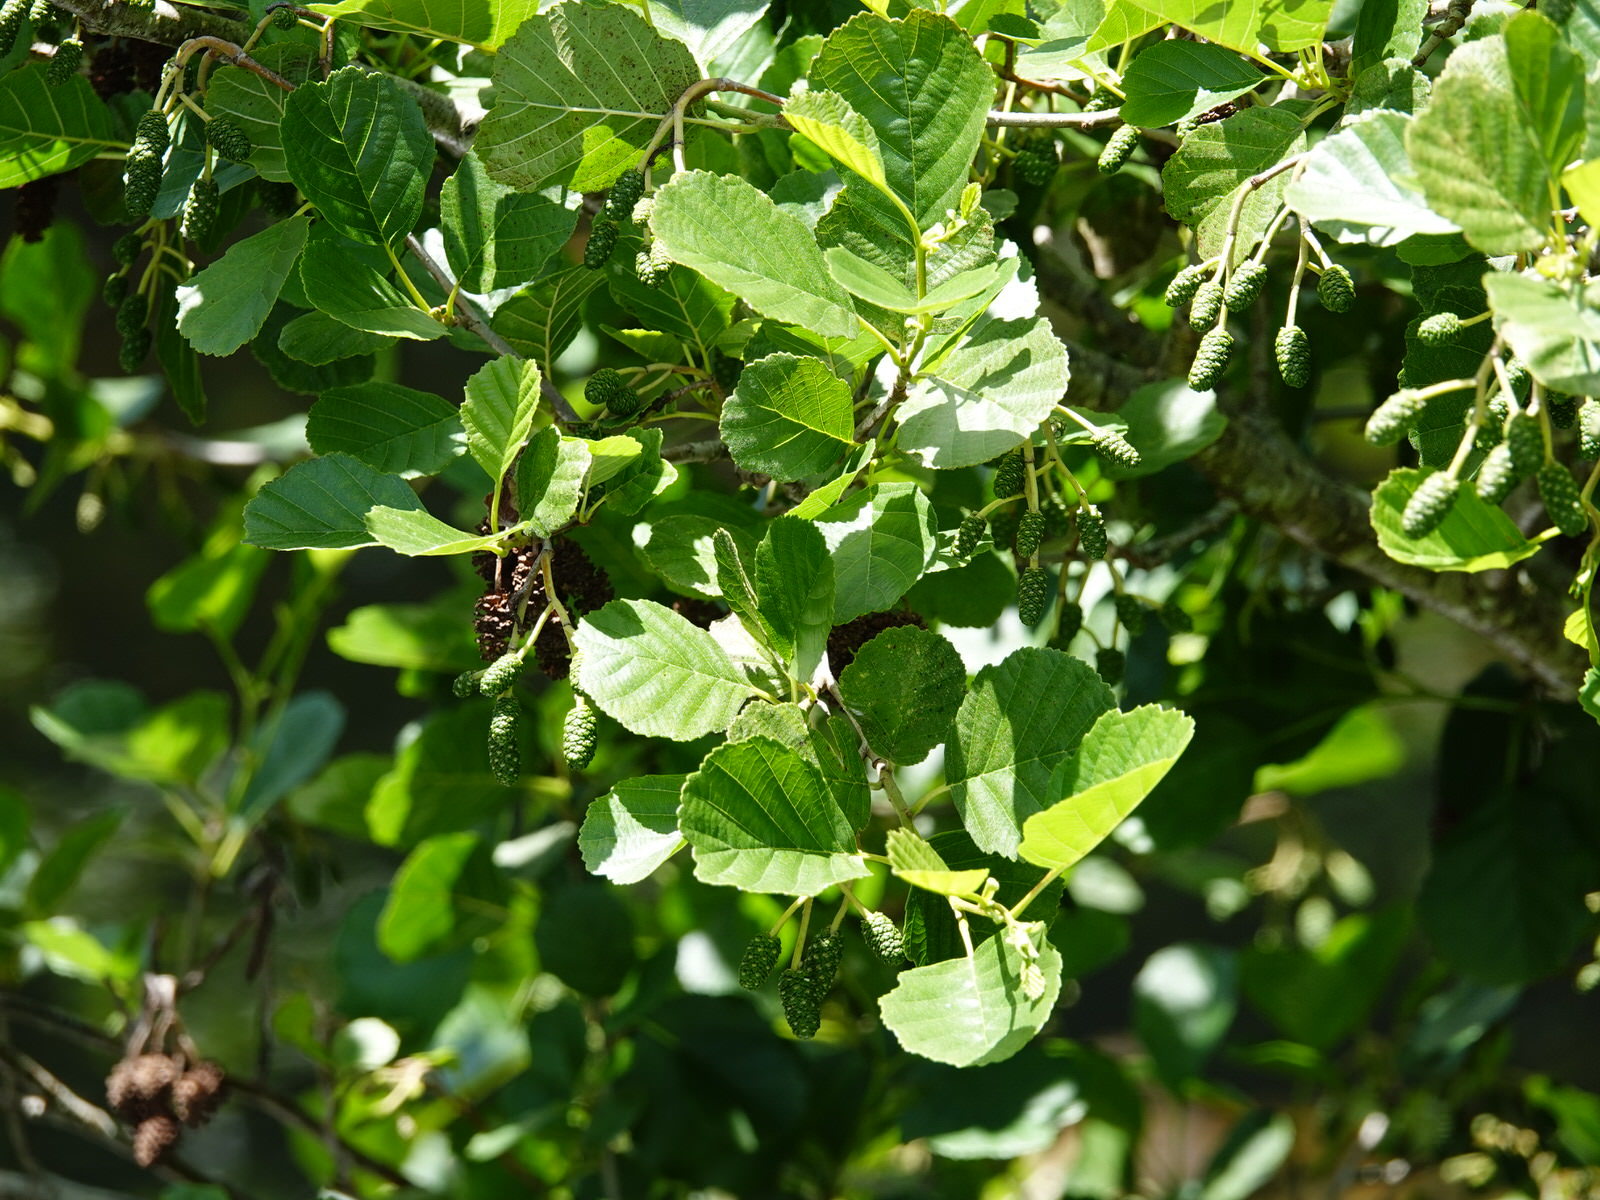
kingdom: Plantae
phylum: Tracheophyta
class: Magnoliopsida
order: Fagales
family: Betulaceae
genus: Alnus
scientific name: Alnus glutinosa
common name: Black alder
